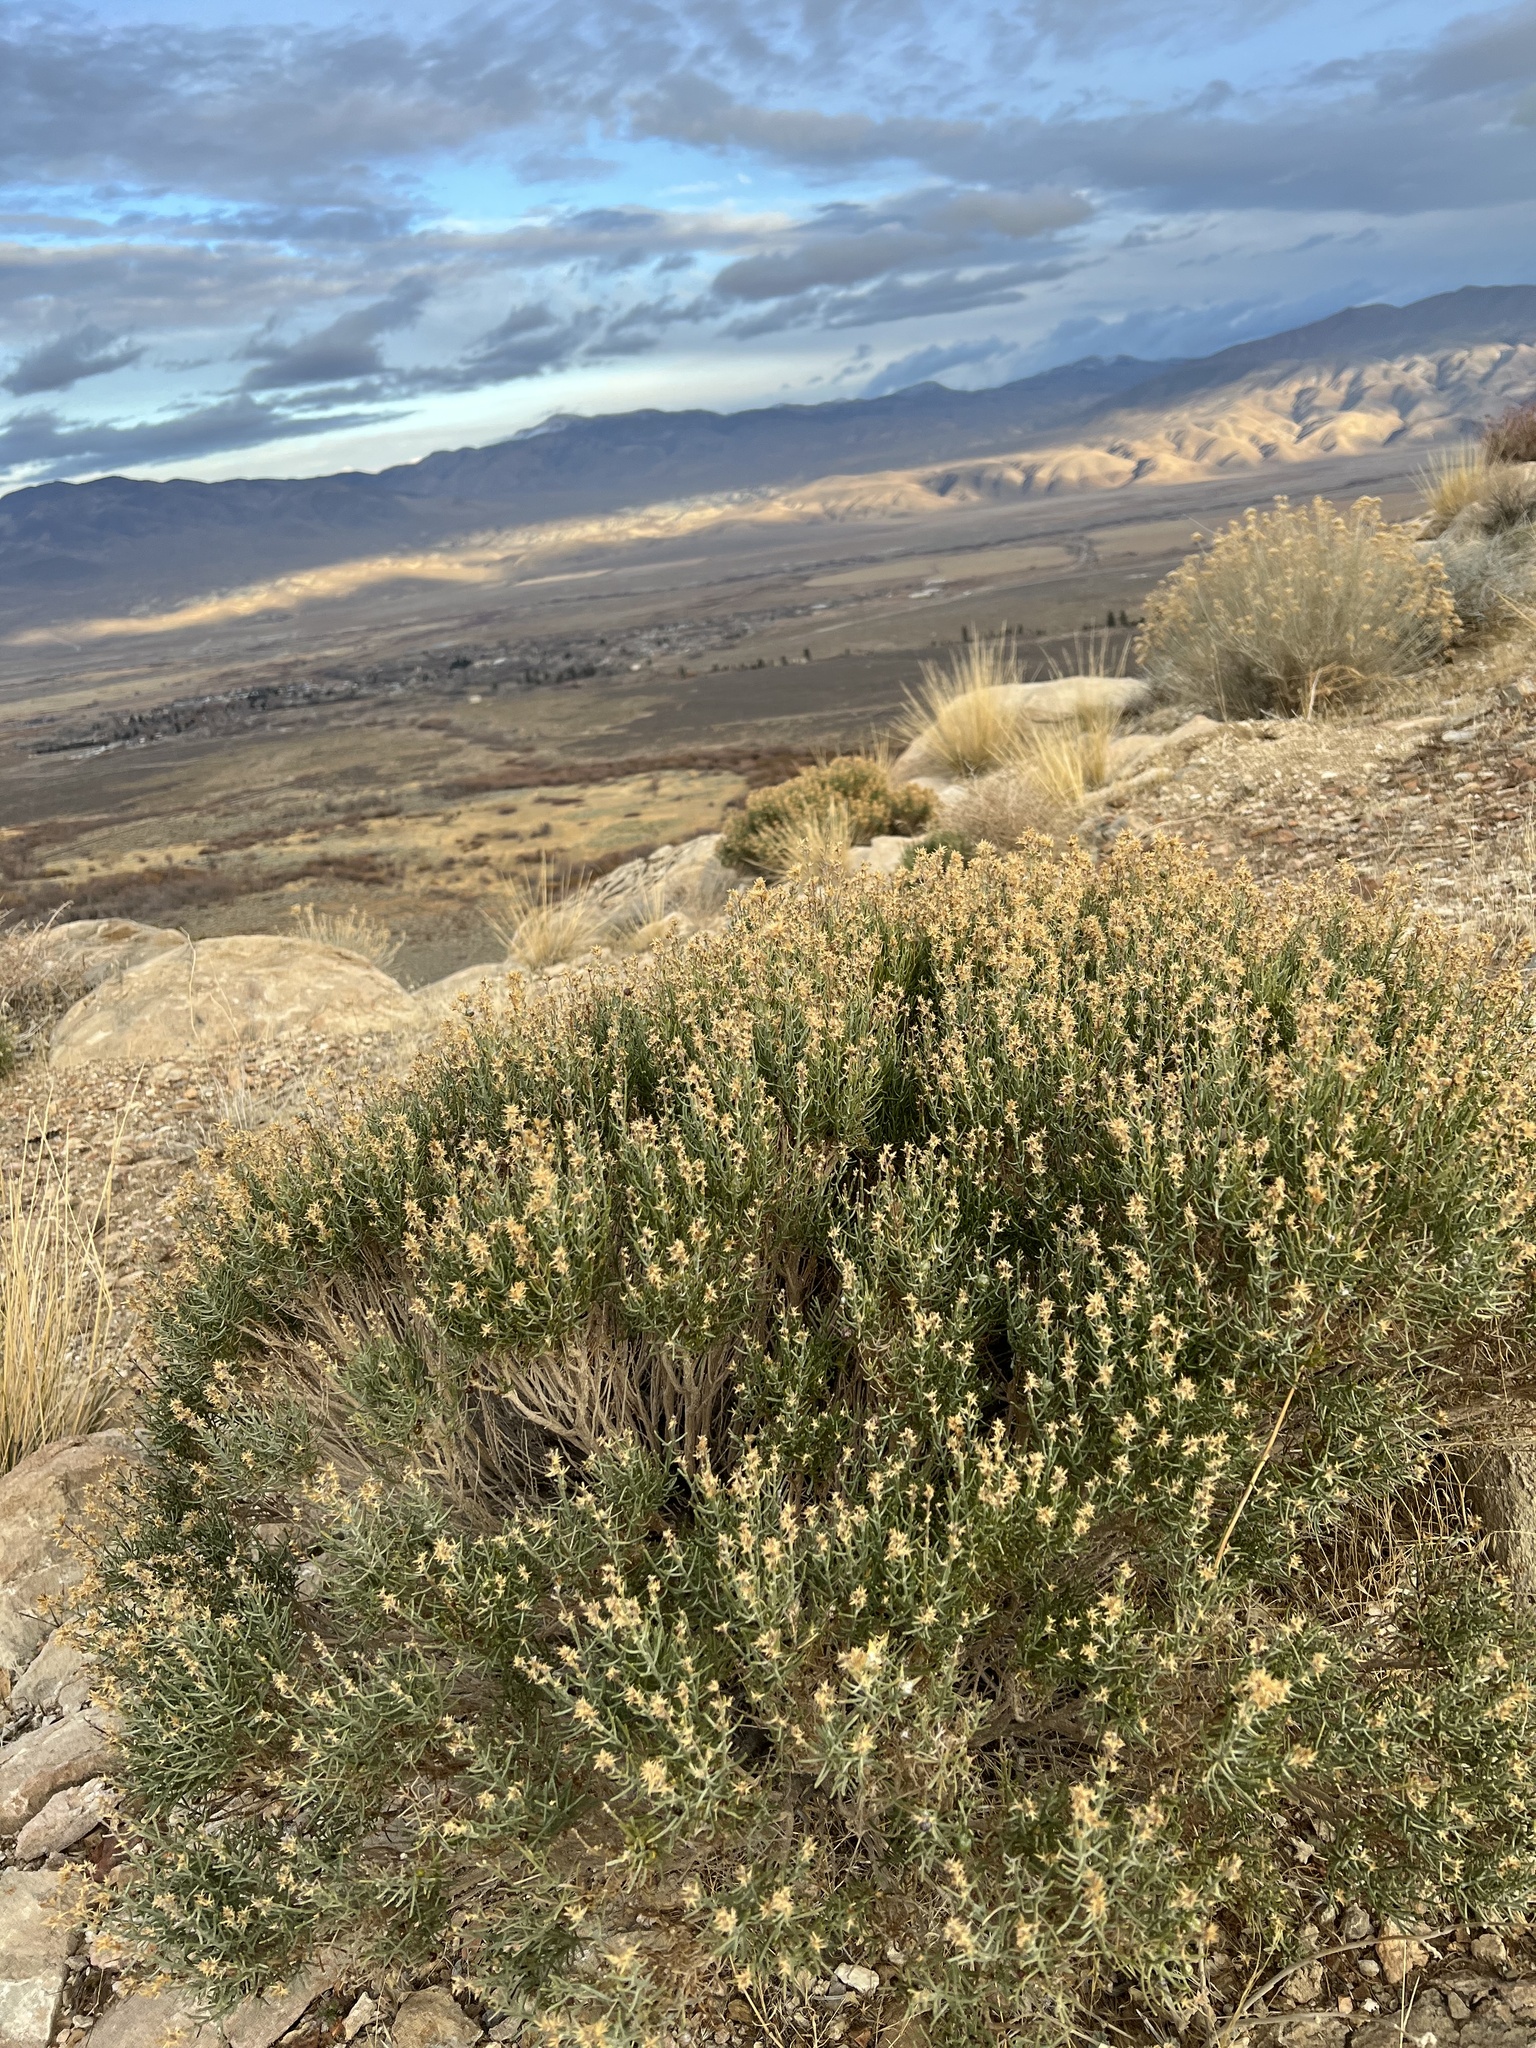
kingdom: Plantae
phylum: Tracheophyta
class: Magnoliopsida
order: Asterales
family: Asteraceae
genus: Ericameria
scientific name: Ericameria teretifolia
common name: Round-leaf rabbitbrush
